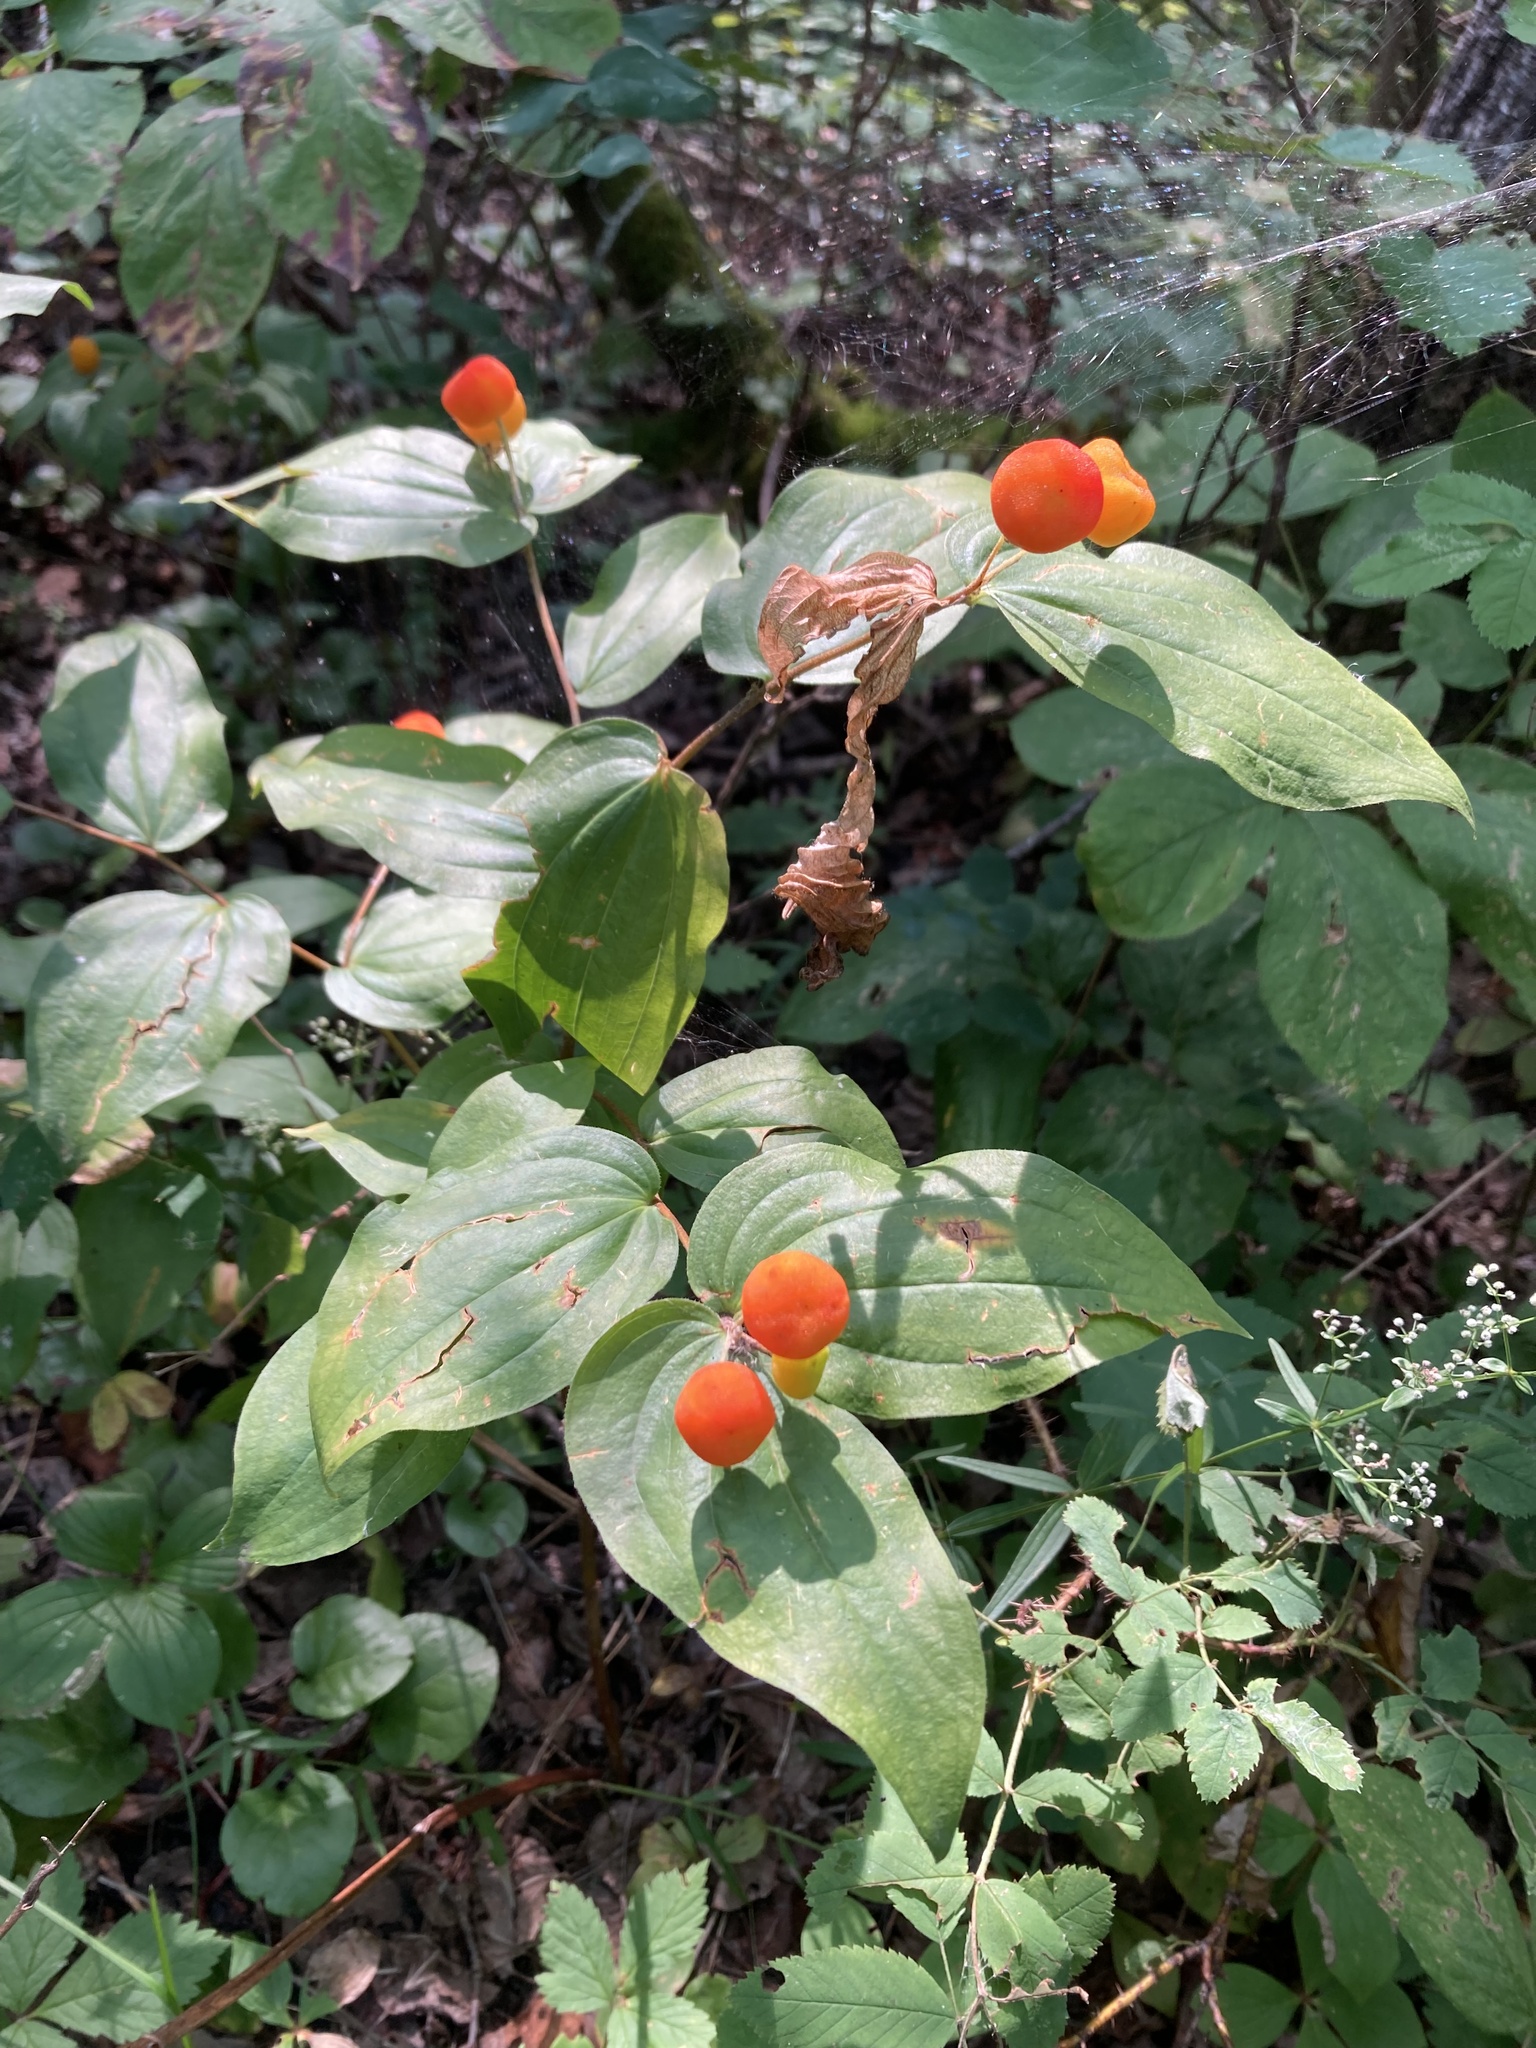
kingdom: Plantae
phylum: Tracheophyta
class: Liliopsida
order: Liliales
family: Liliaceae
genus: Prosartes
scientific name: Prosartes trachycarpa
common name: Rough-fruit fairy-bells
